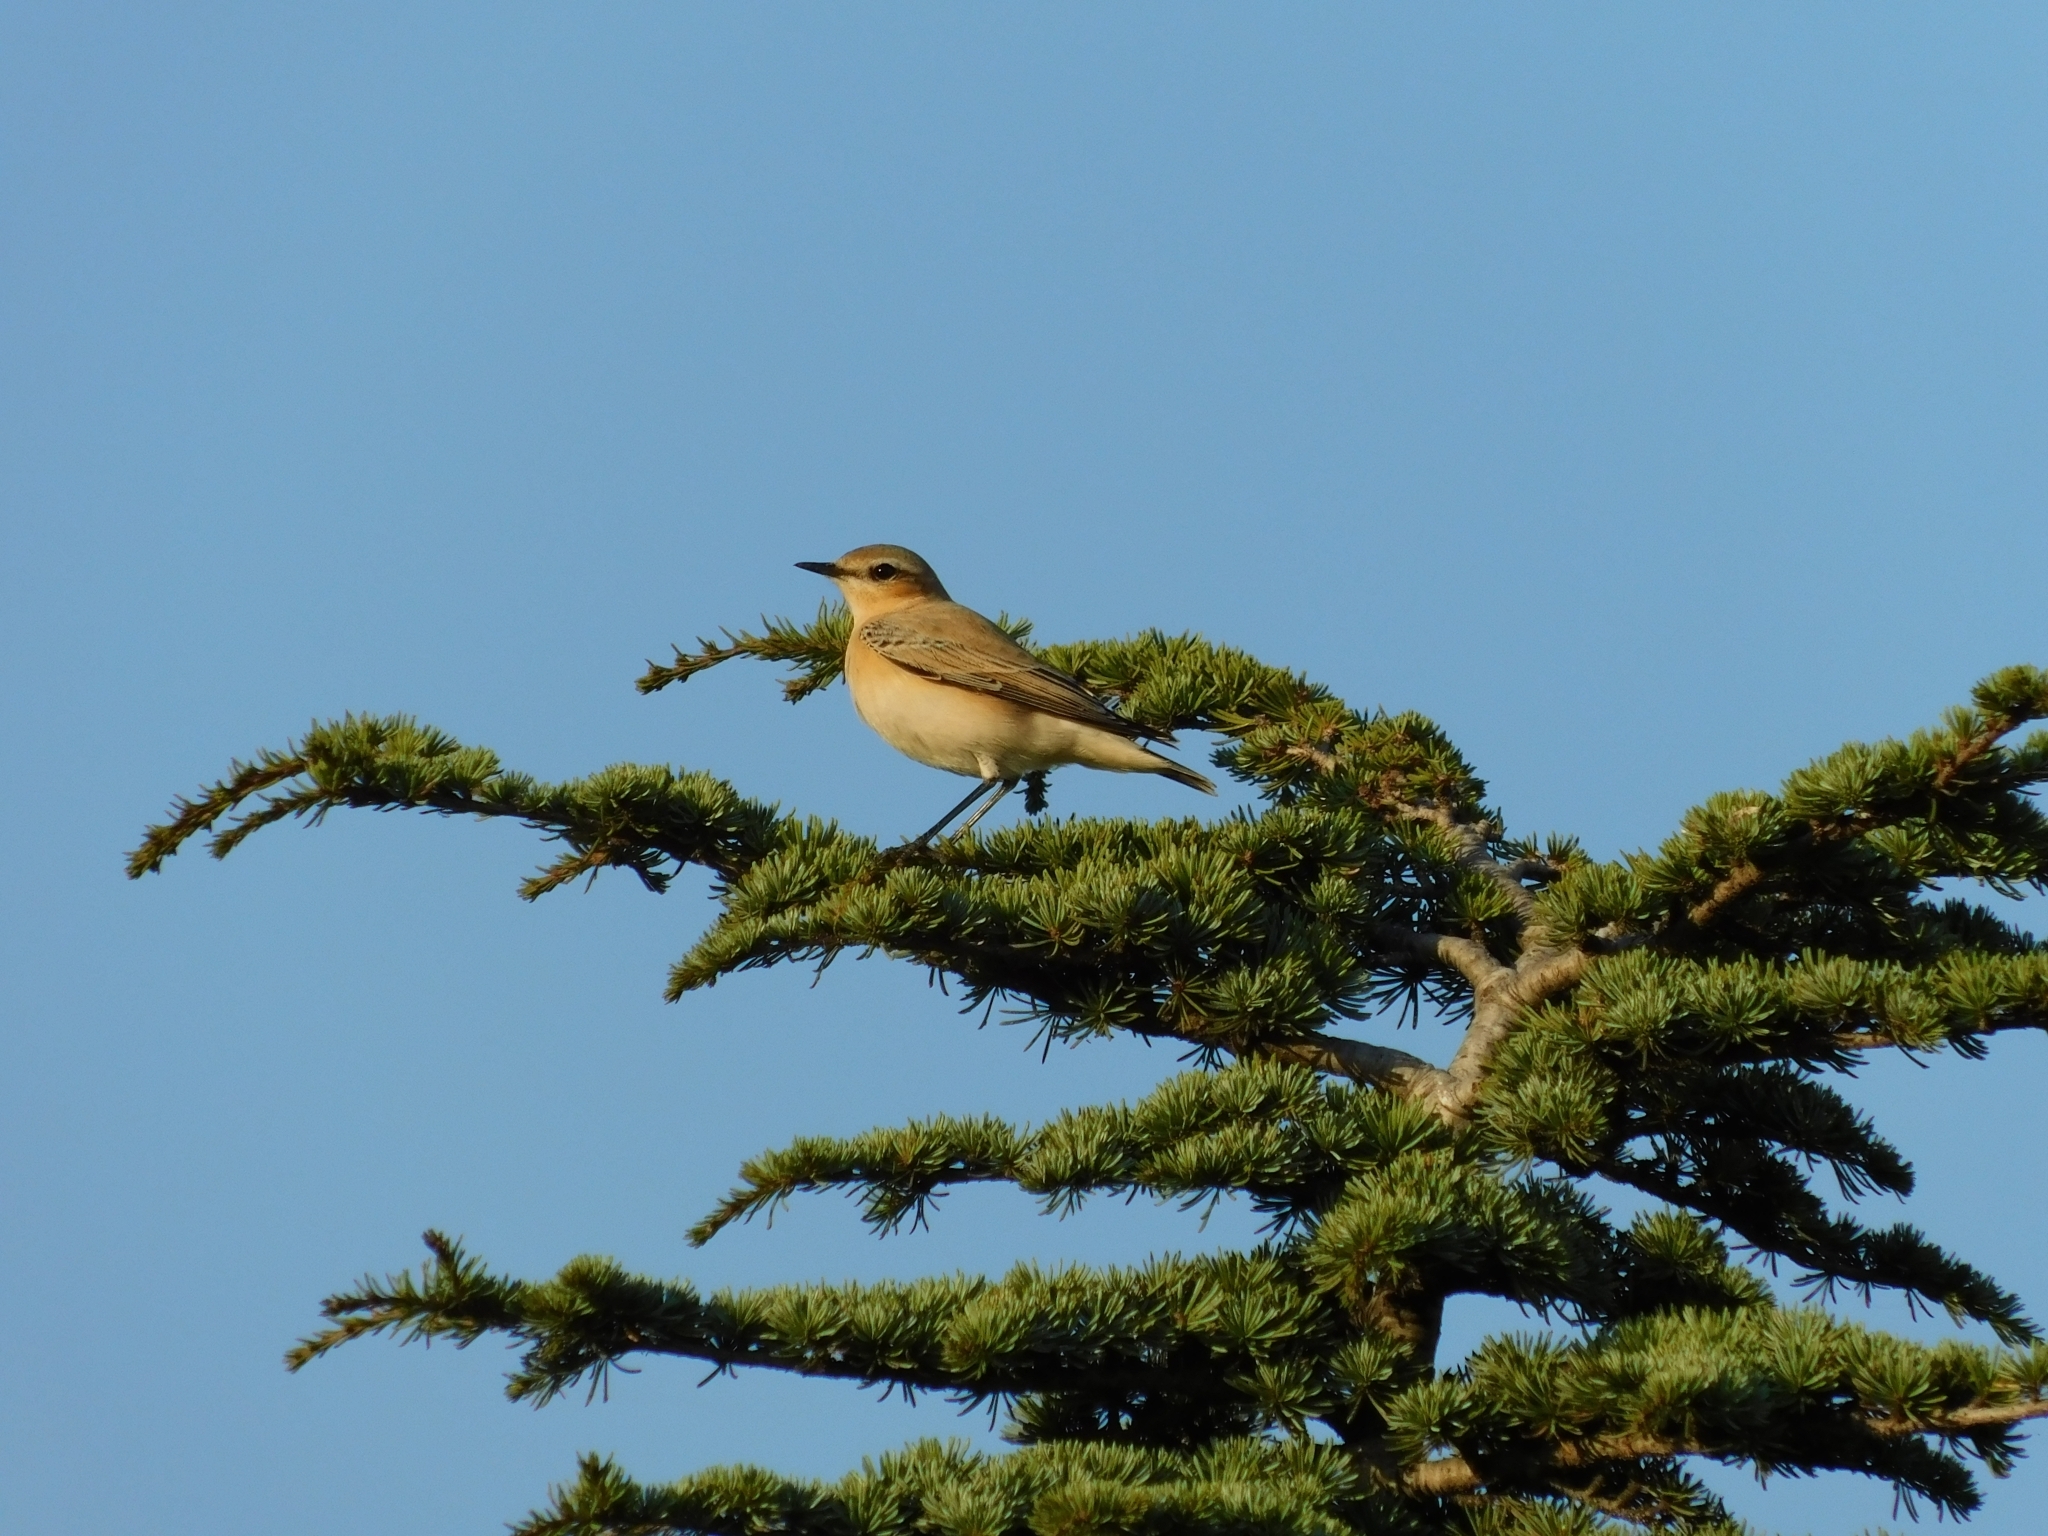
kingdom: Animalia
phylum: Chordata
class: Aves
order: Passeriformes
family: Muscicapidae
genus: Oenanthe
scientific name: Oenanthe oenanthe
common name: Northern wheatear
